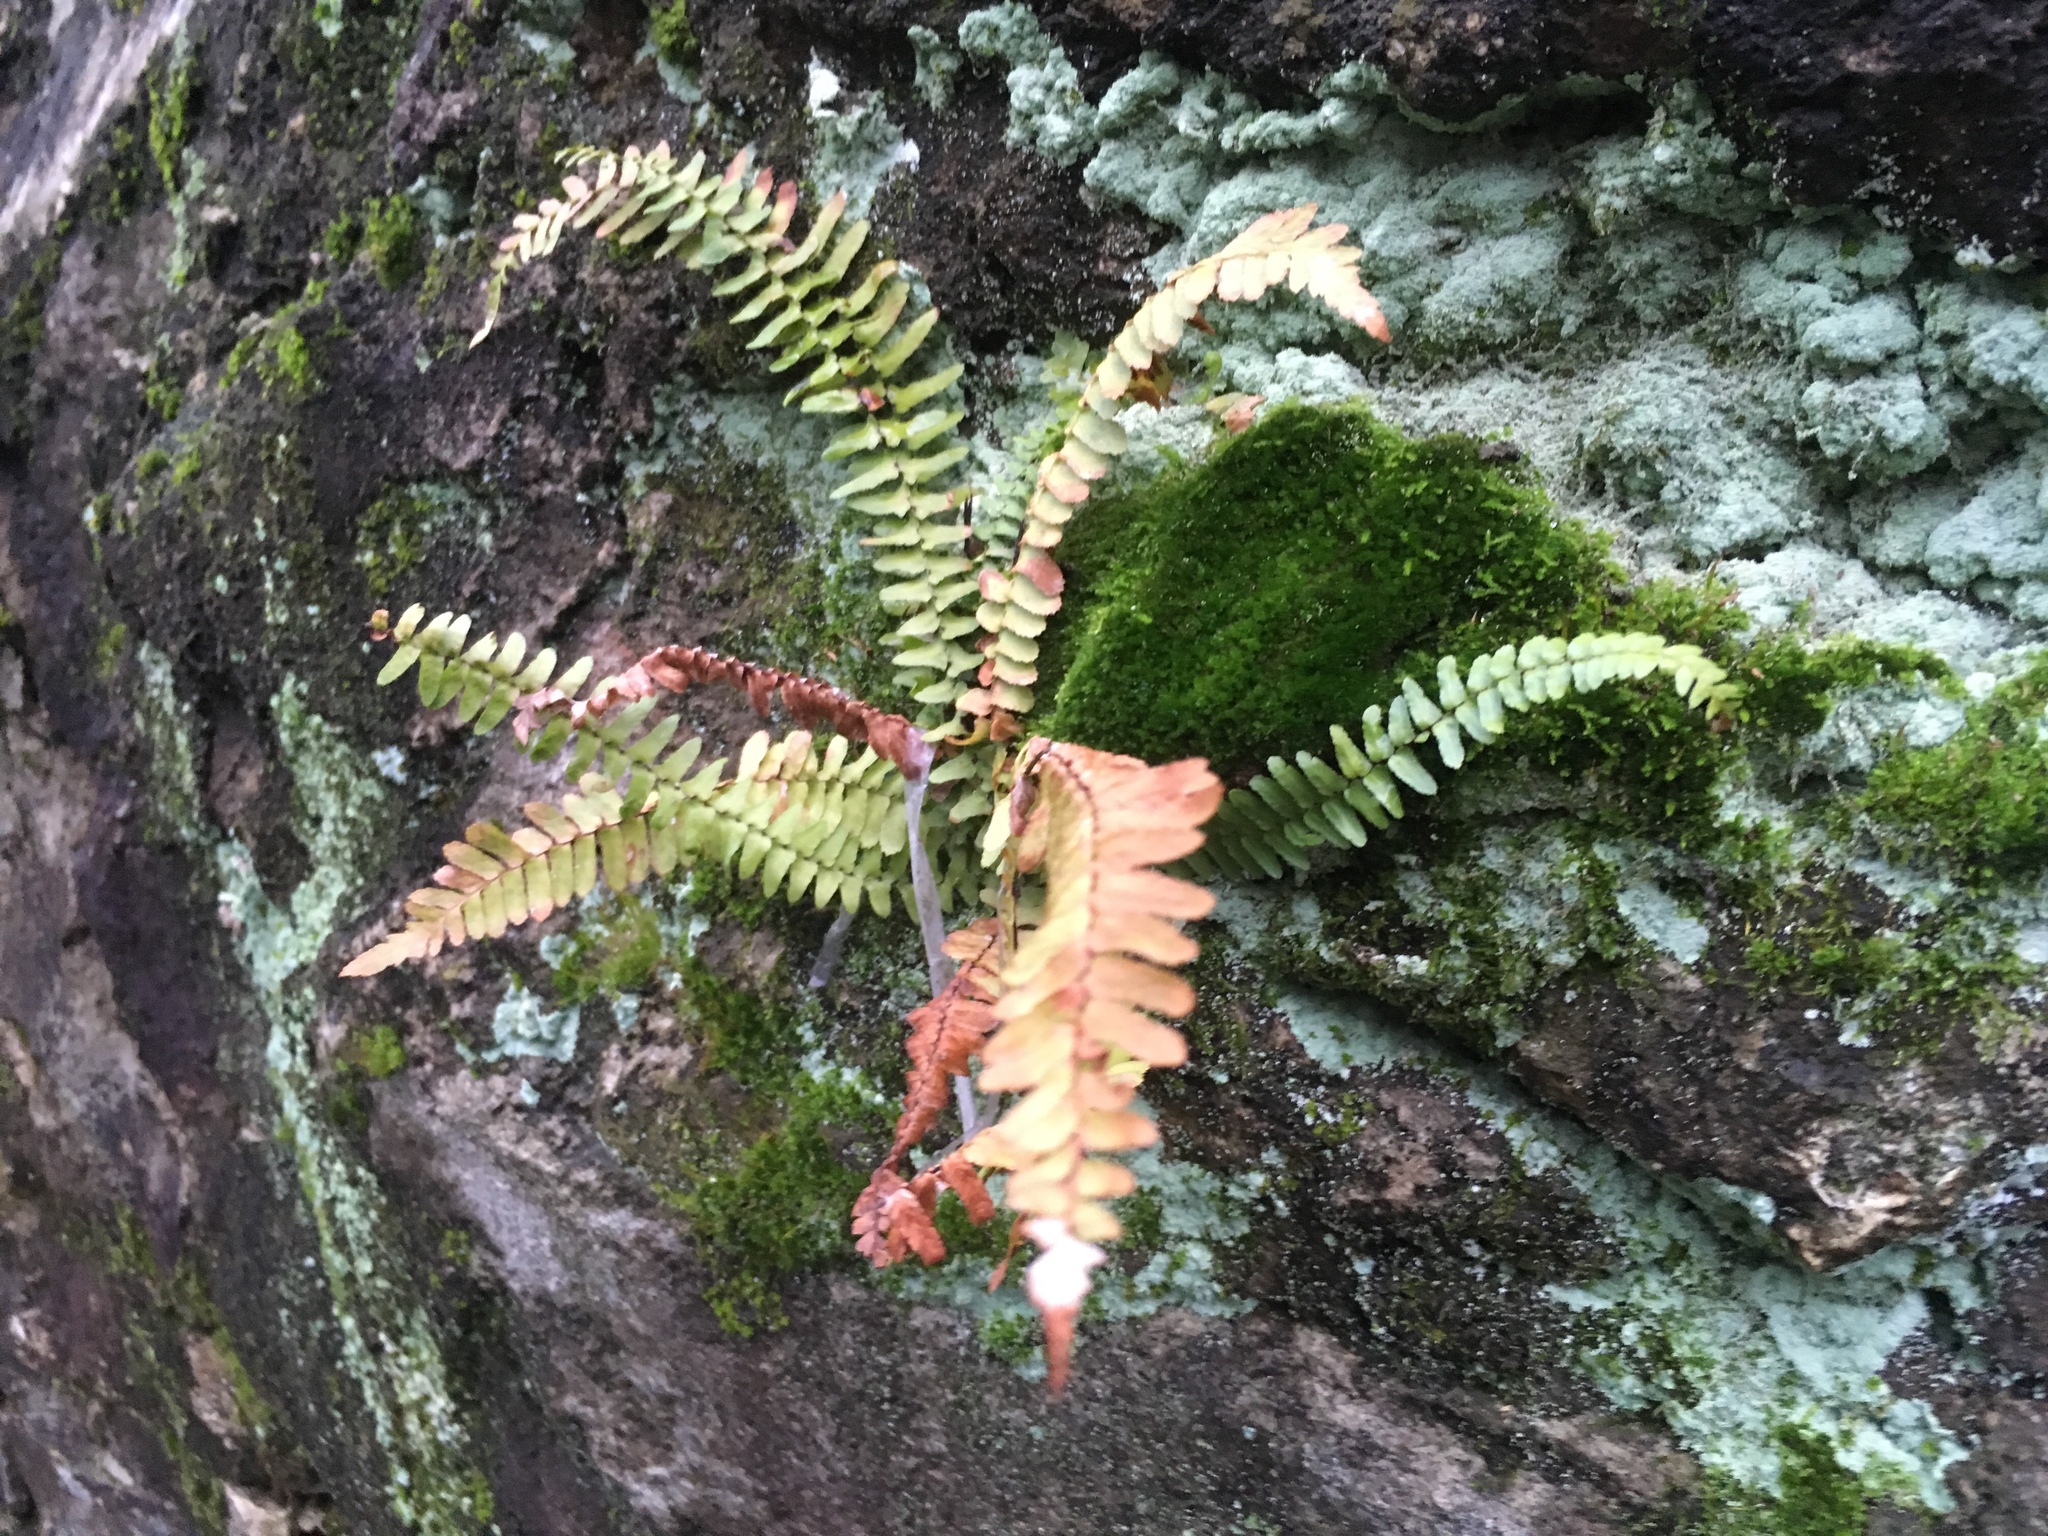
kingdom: Plantae
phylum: Tracheophyta
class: Polypodiopsida
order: Polypodiales
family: Aspleniaceae
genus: Asplenium
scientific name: Asplenium platyneuron
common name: Ebony spleenwort
